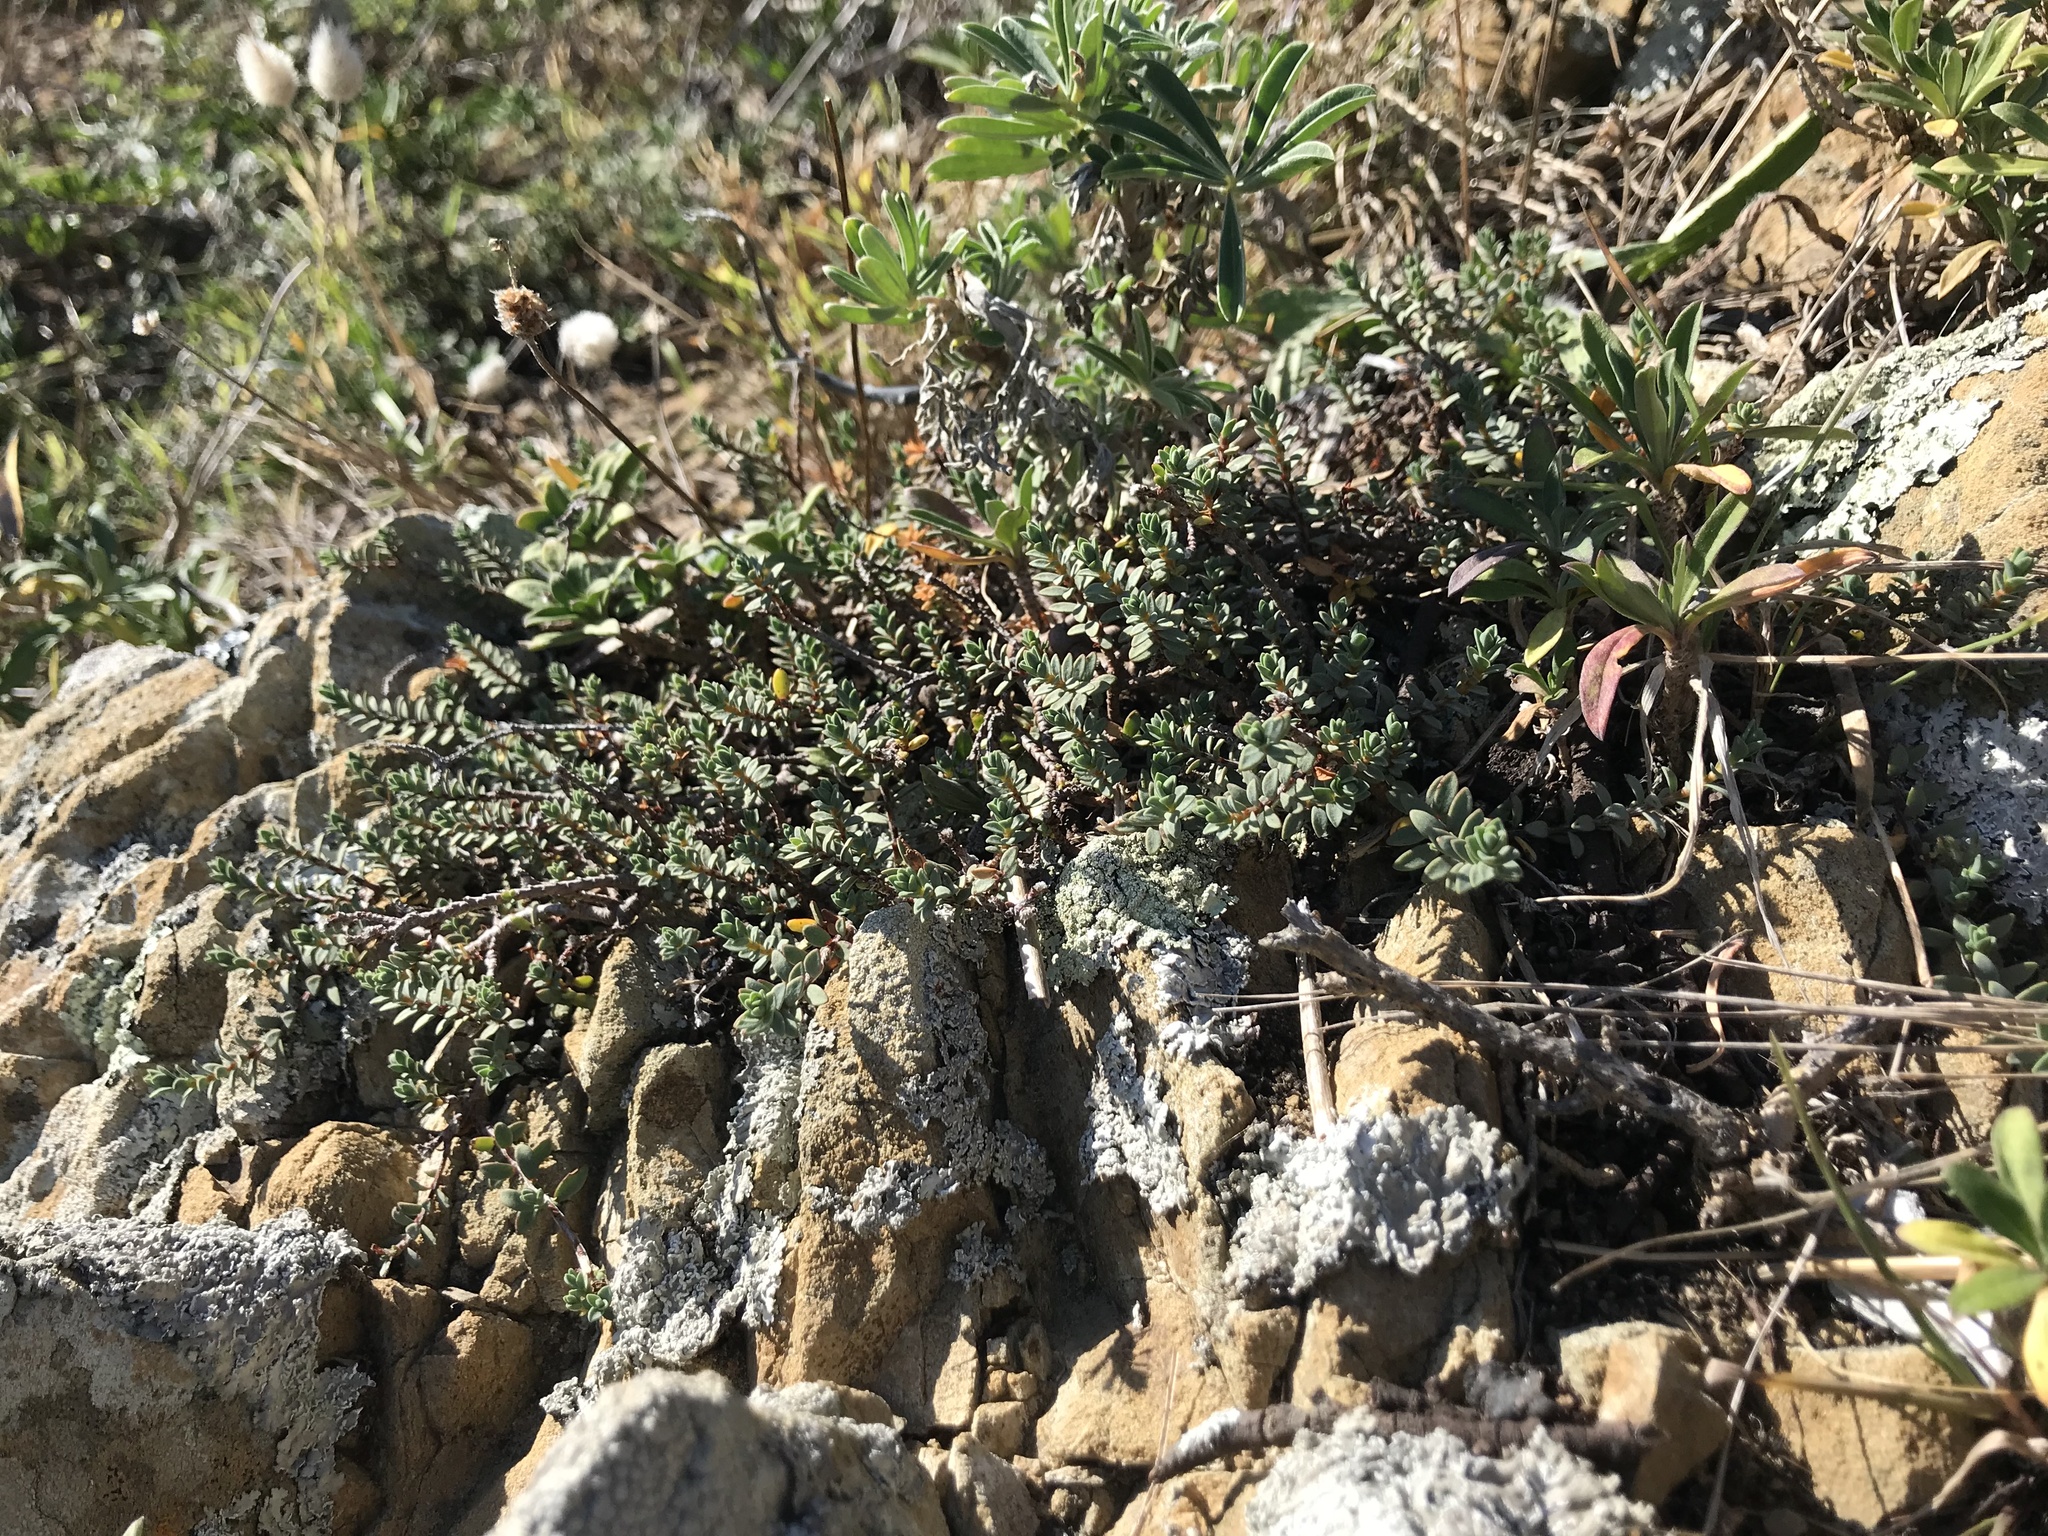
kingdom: Plantae
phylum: Tracheophyta
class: Magnoliopsida
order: Malvales
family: Thymelaeaceae
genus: Pimelea
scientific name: Pimelea prostrata
